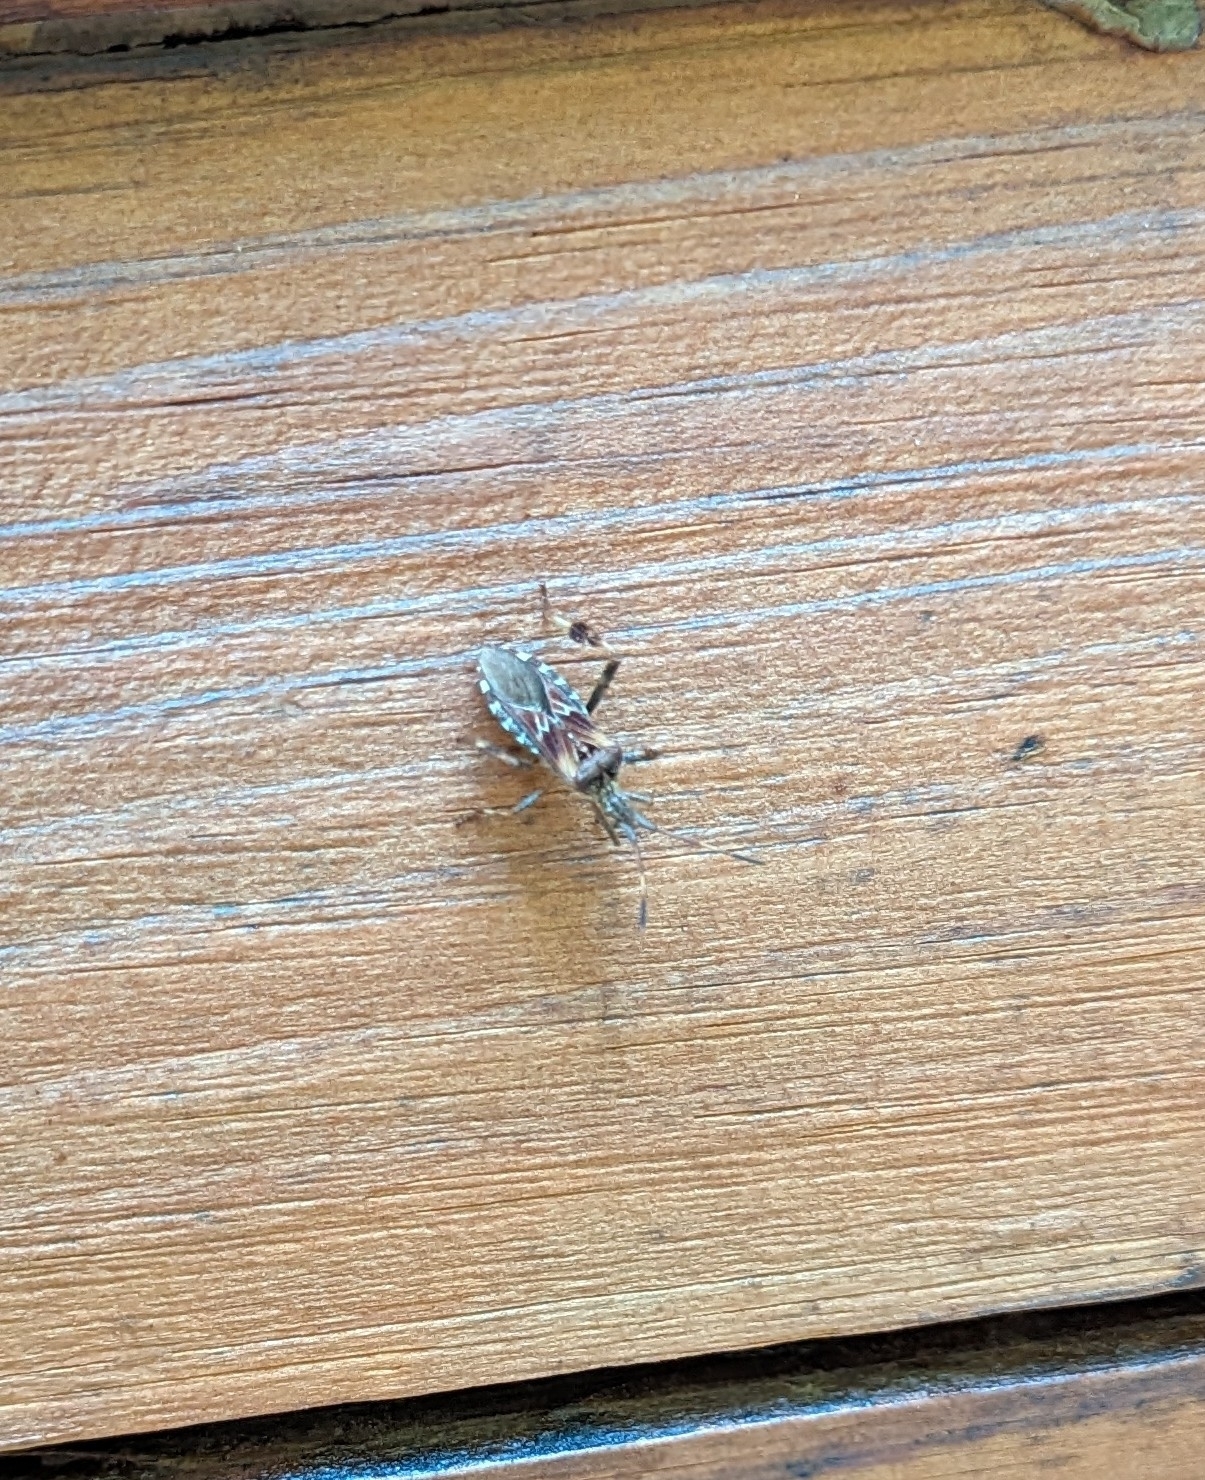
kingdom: Animalia
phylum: Arthropoda
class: Insecta
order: Hemiptera
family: Coreidae
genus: Leptoglossus
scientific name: Leptoglossus occidentalis
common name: Western conifer-seed bug
